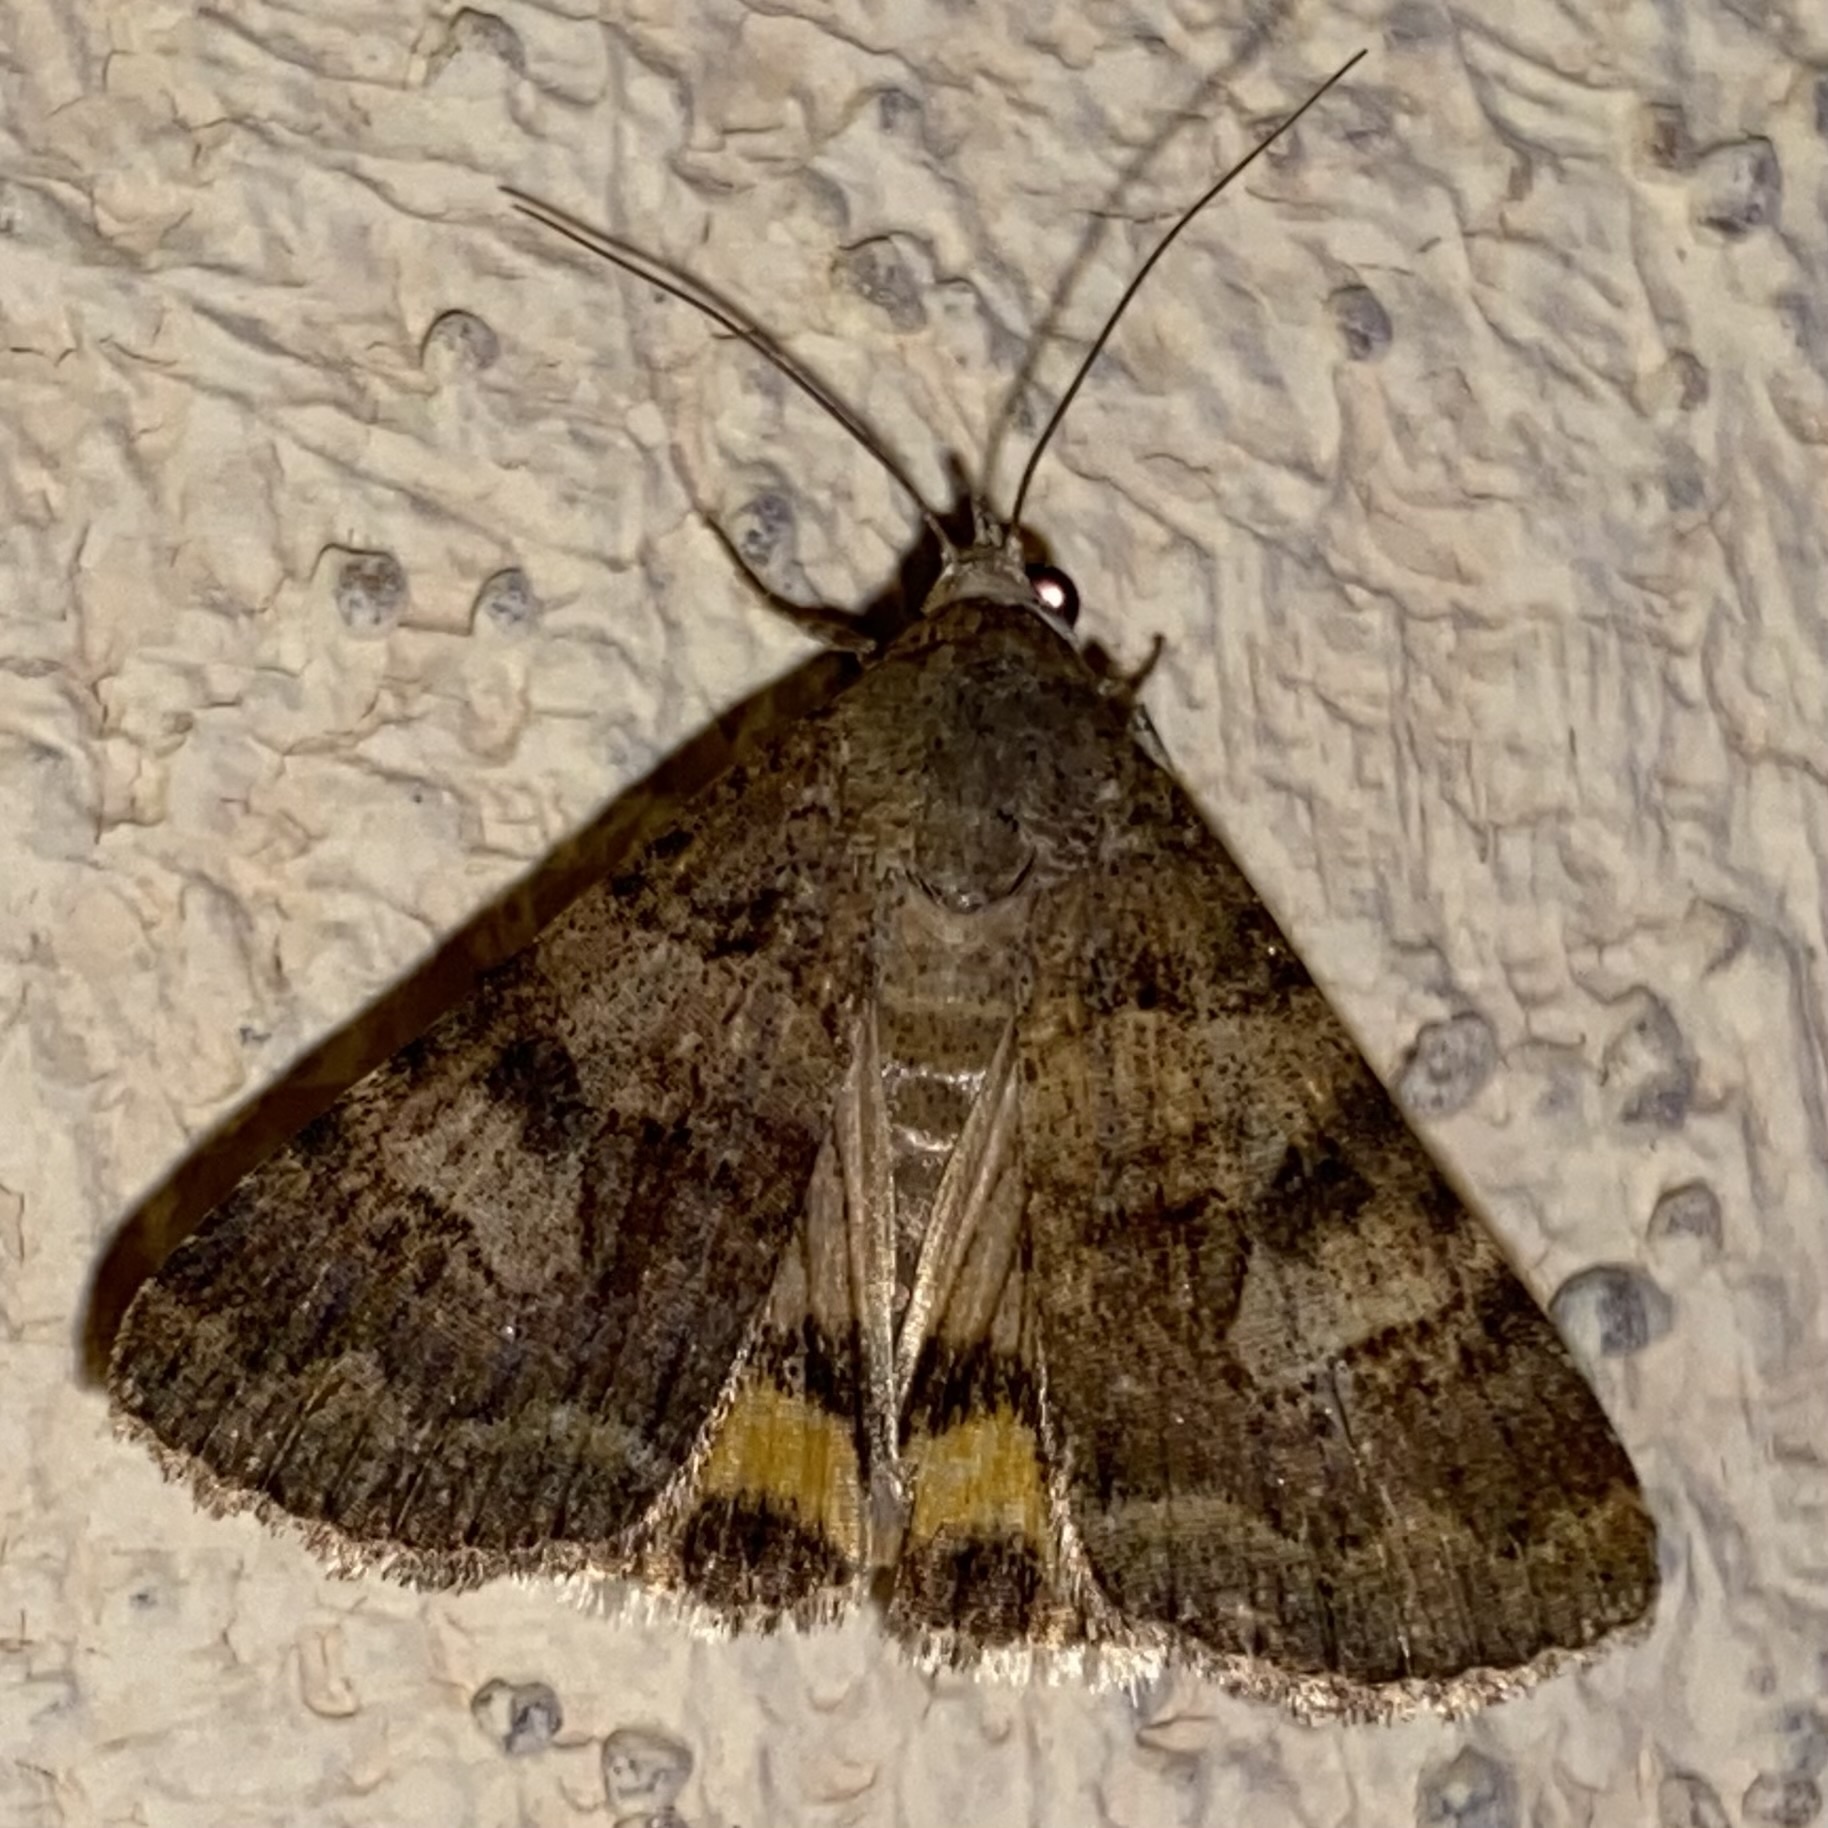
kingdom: Animalia
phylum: Arthropoda
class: Insecta
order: Lepidoptera
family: Erebidae
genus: Bulia
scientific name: Bulia deducta
